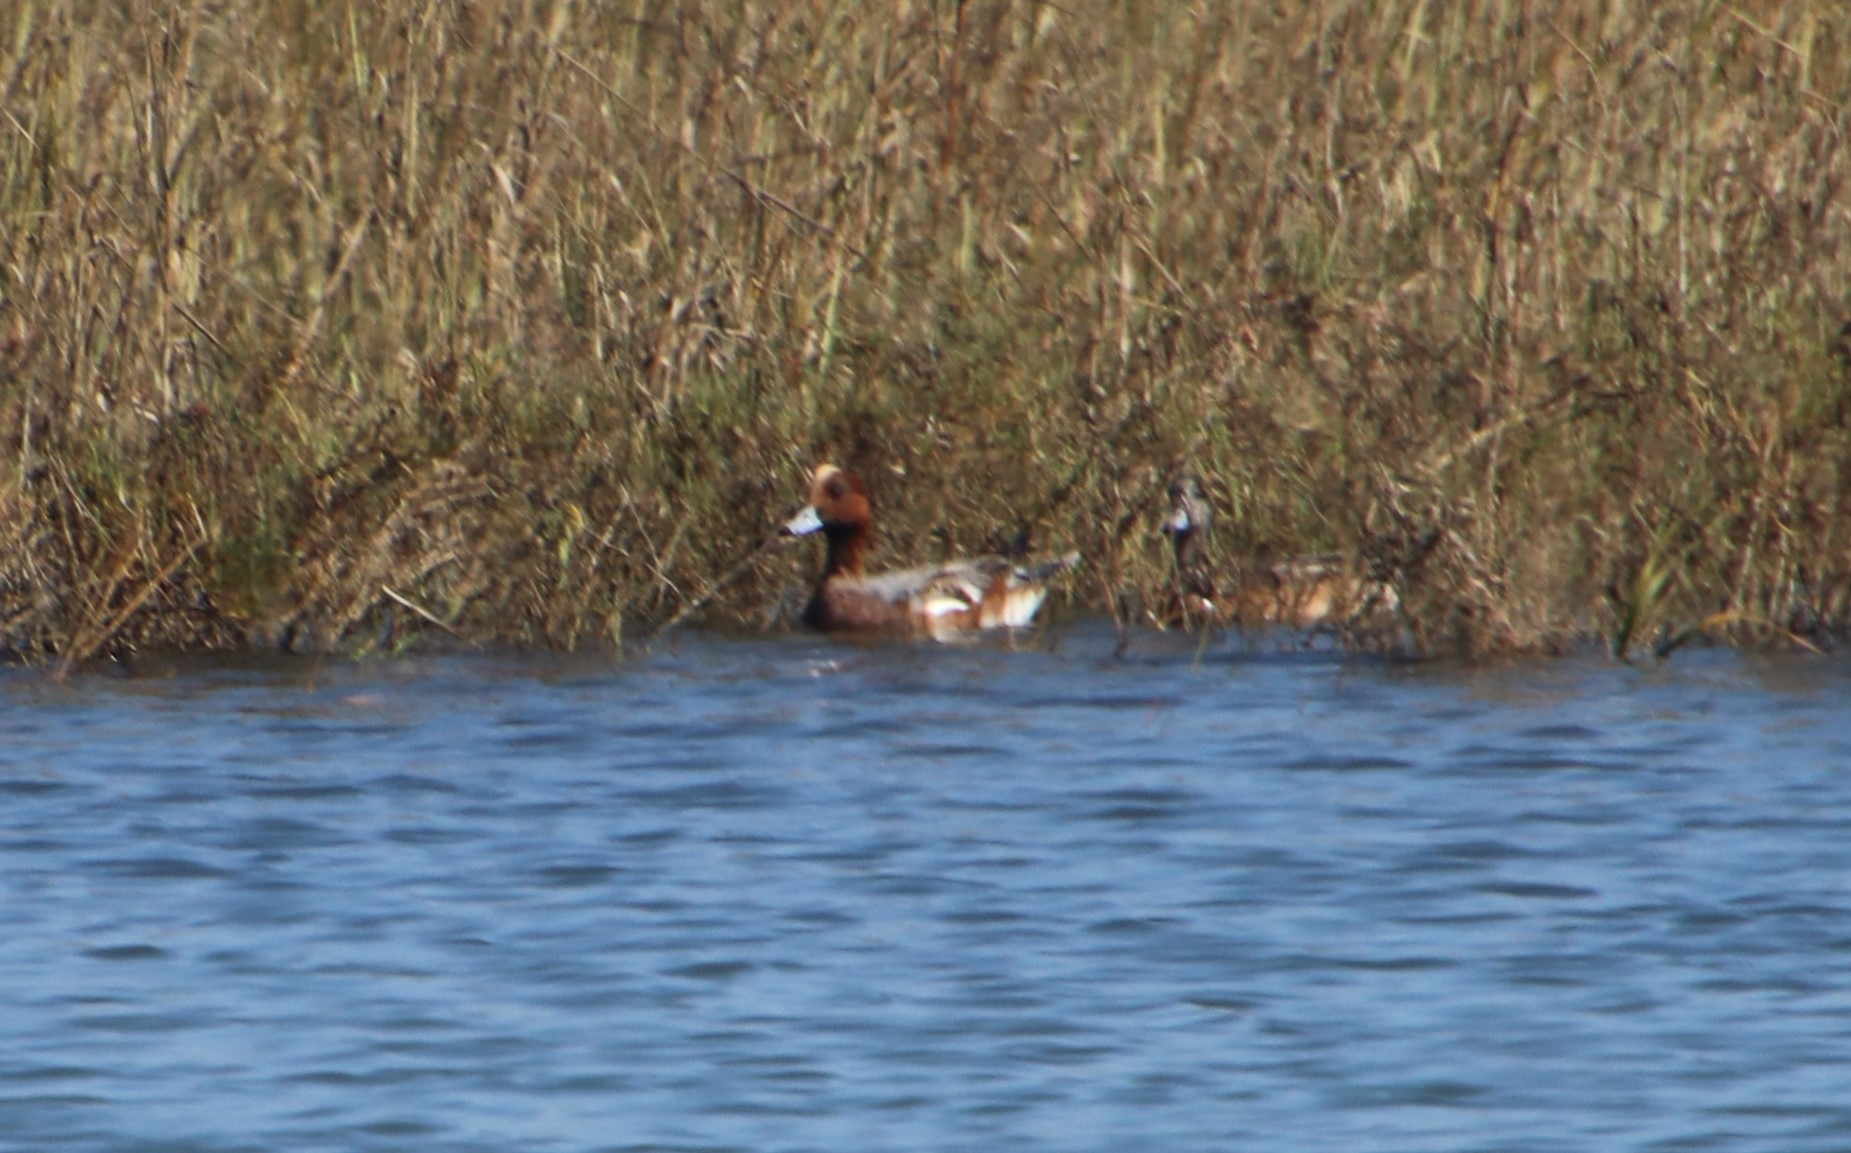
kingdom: Animalia
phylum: Chordata
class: Aves
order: Anseriformes
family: Anatidae
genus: Mareca
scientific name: Mareca penelope
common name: Eurasian wigeon
